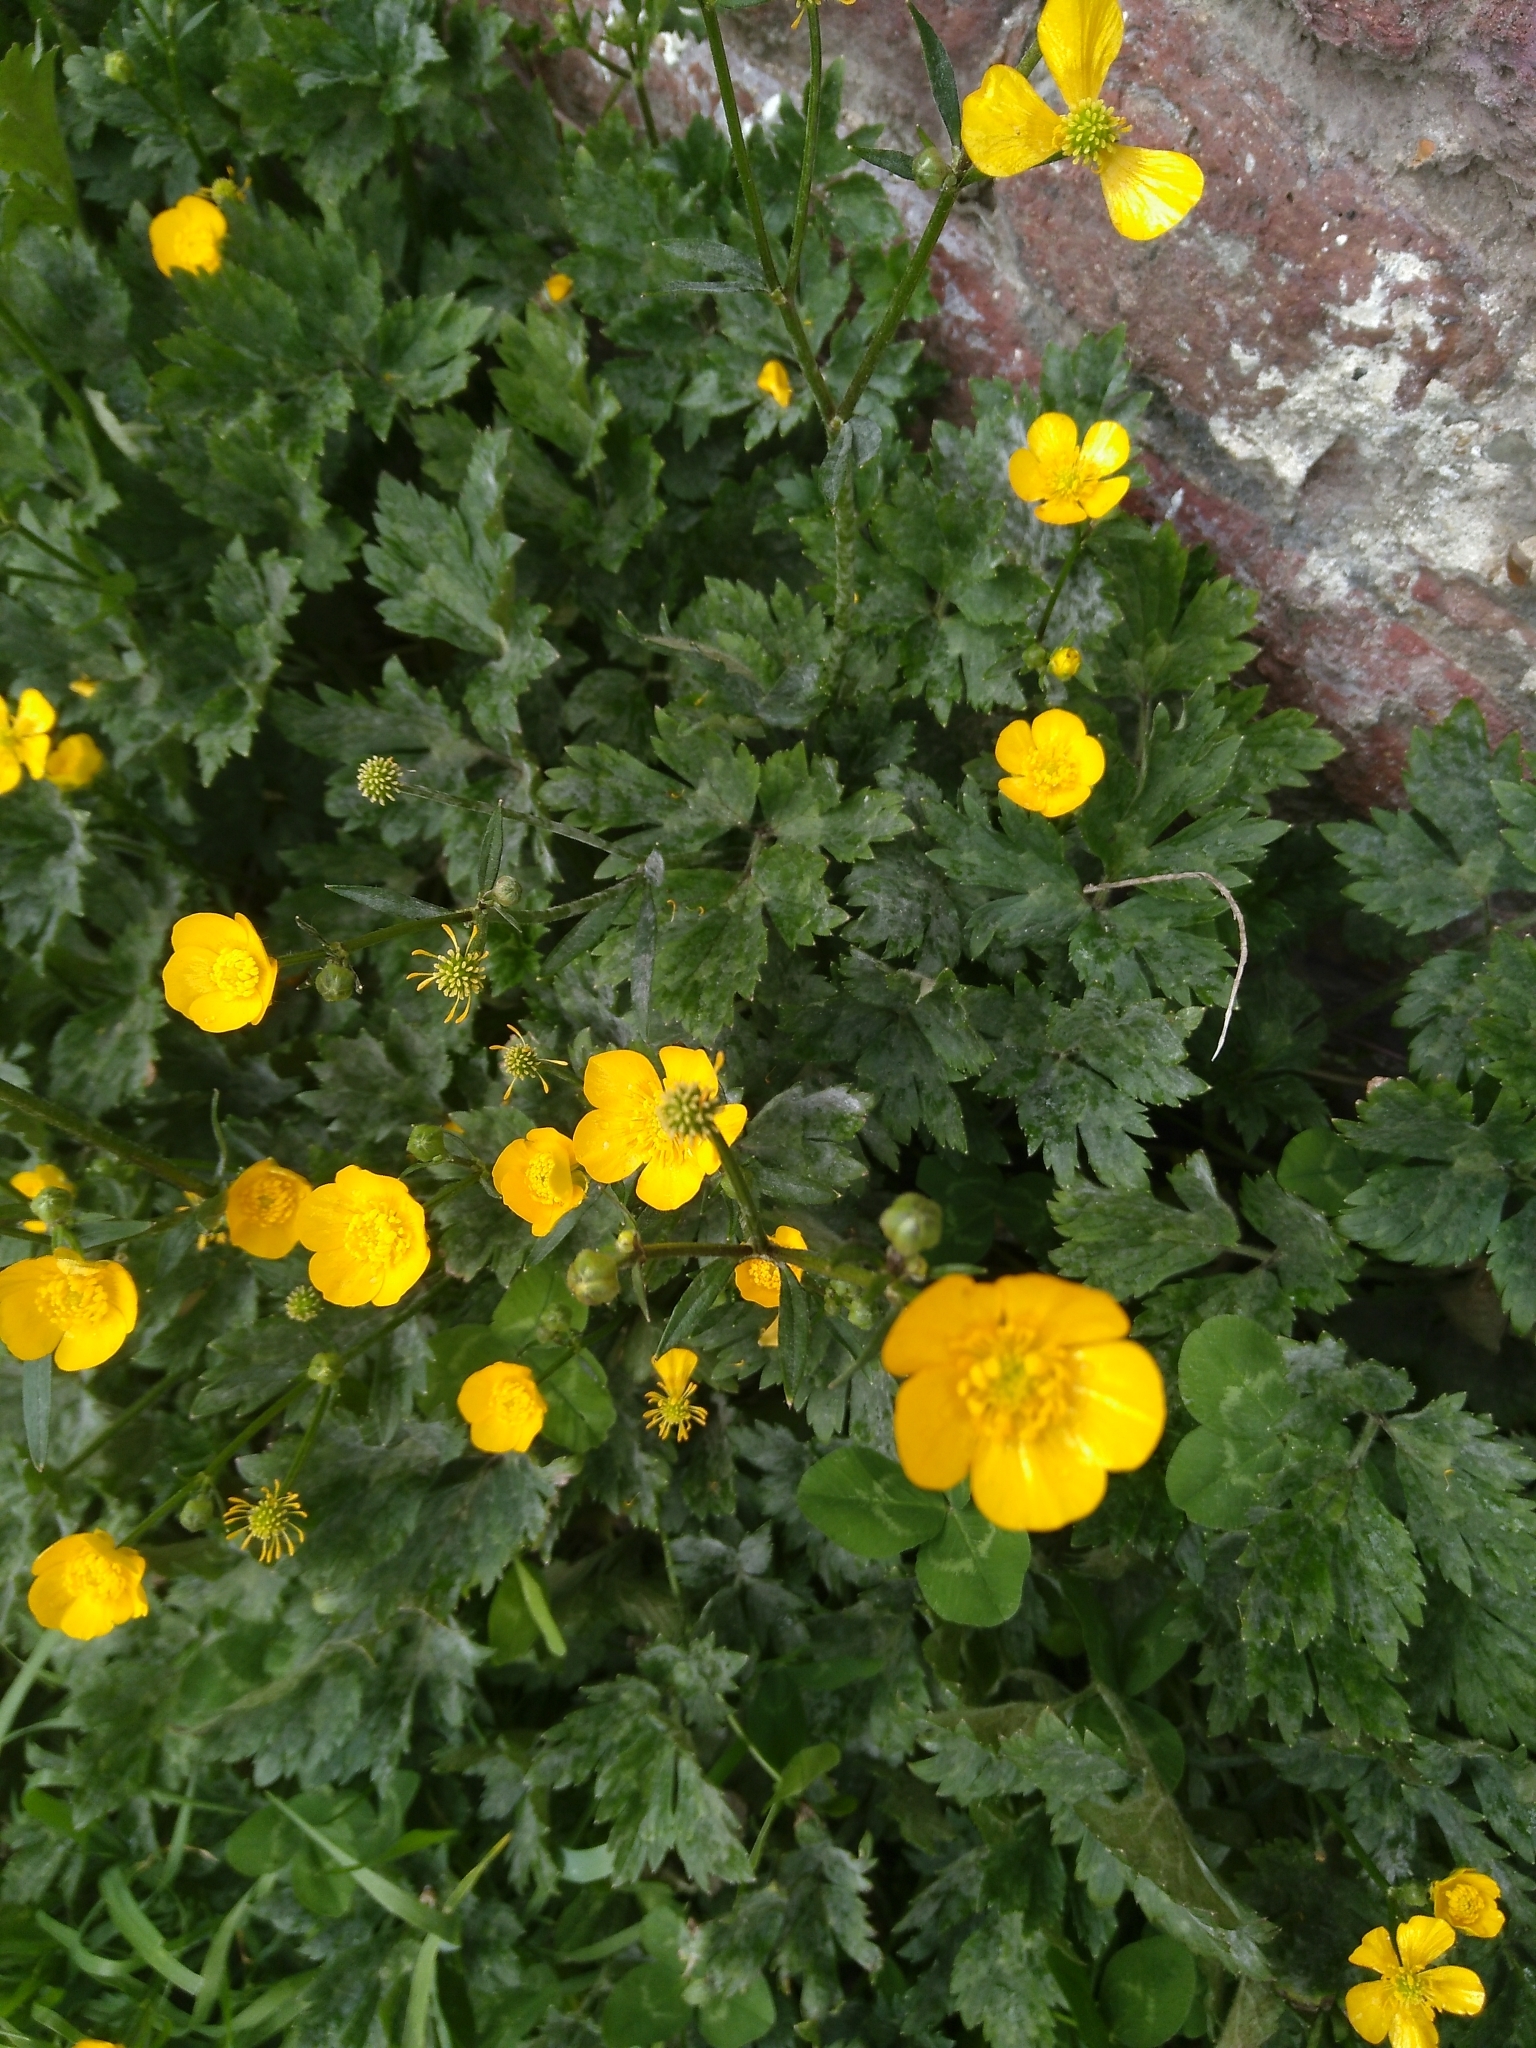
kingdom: Plantae
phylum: Tracheophyta
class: Magnoliopsida
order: Ranunculales
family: Ranunculaceae
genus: Ranunculus
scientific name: Ranunculus repens
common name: Creeping buttercup
